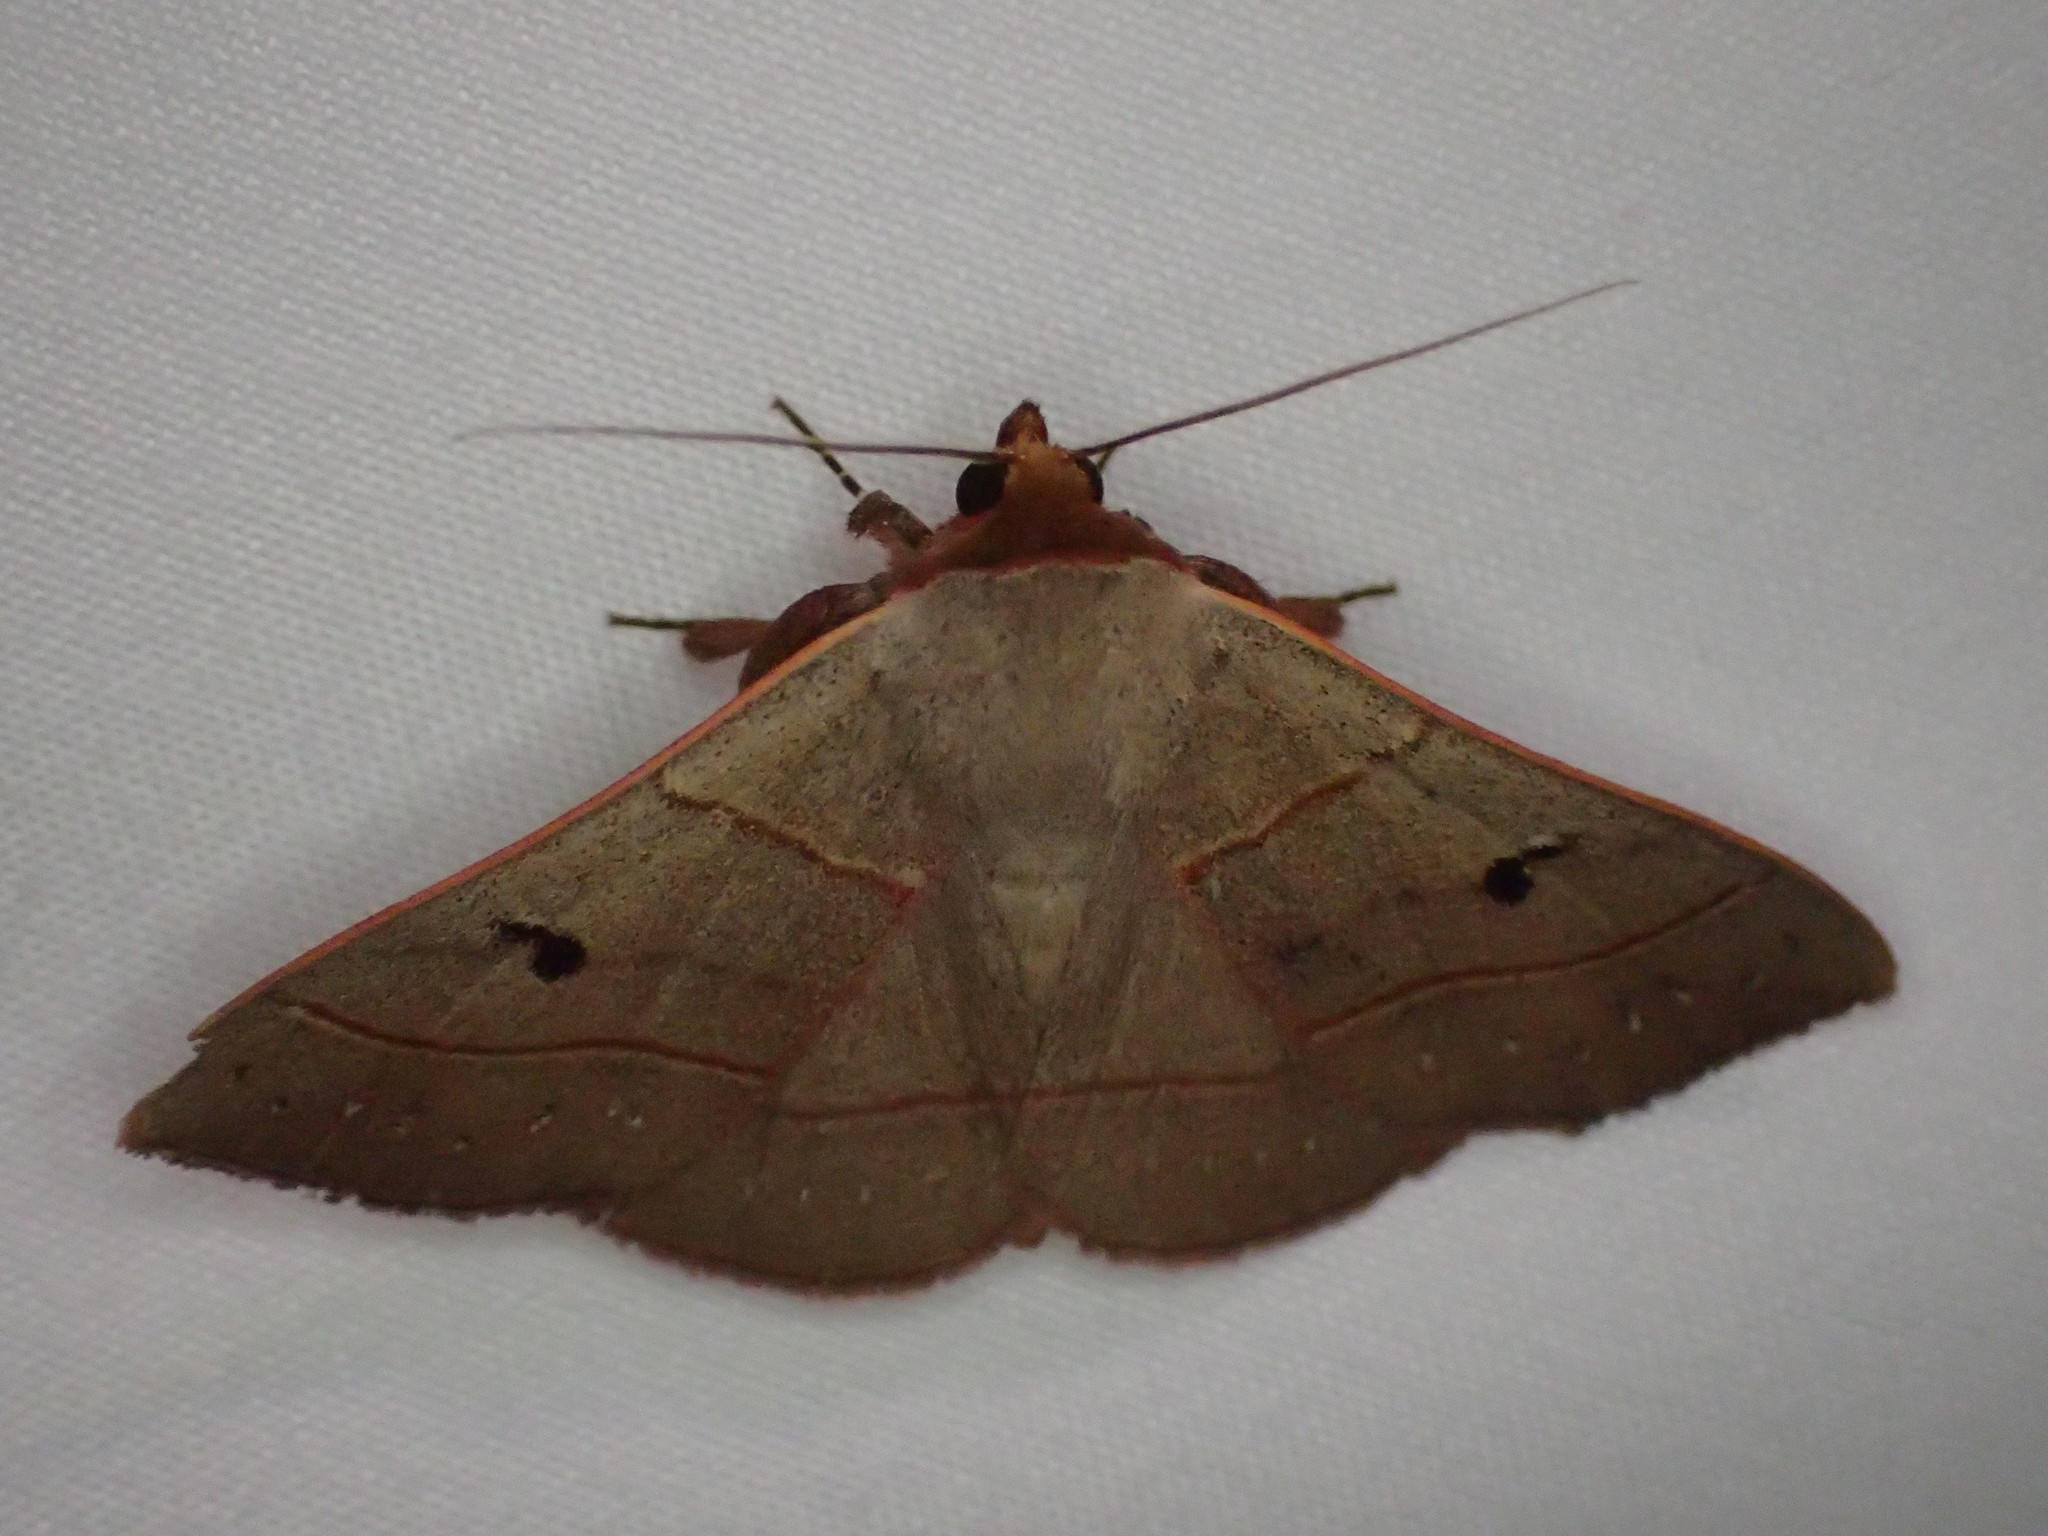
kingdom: Animalia
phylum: Arthropoda
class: Insecta
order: Lepidoptera
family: Erebidae
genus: Panopoda
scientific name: Panopoda rufimargo
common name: Red-lined panopoda moth
